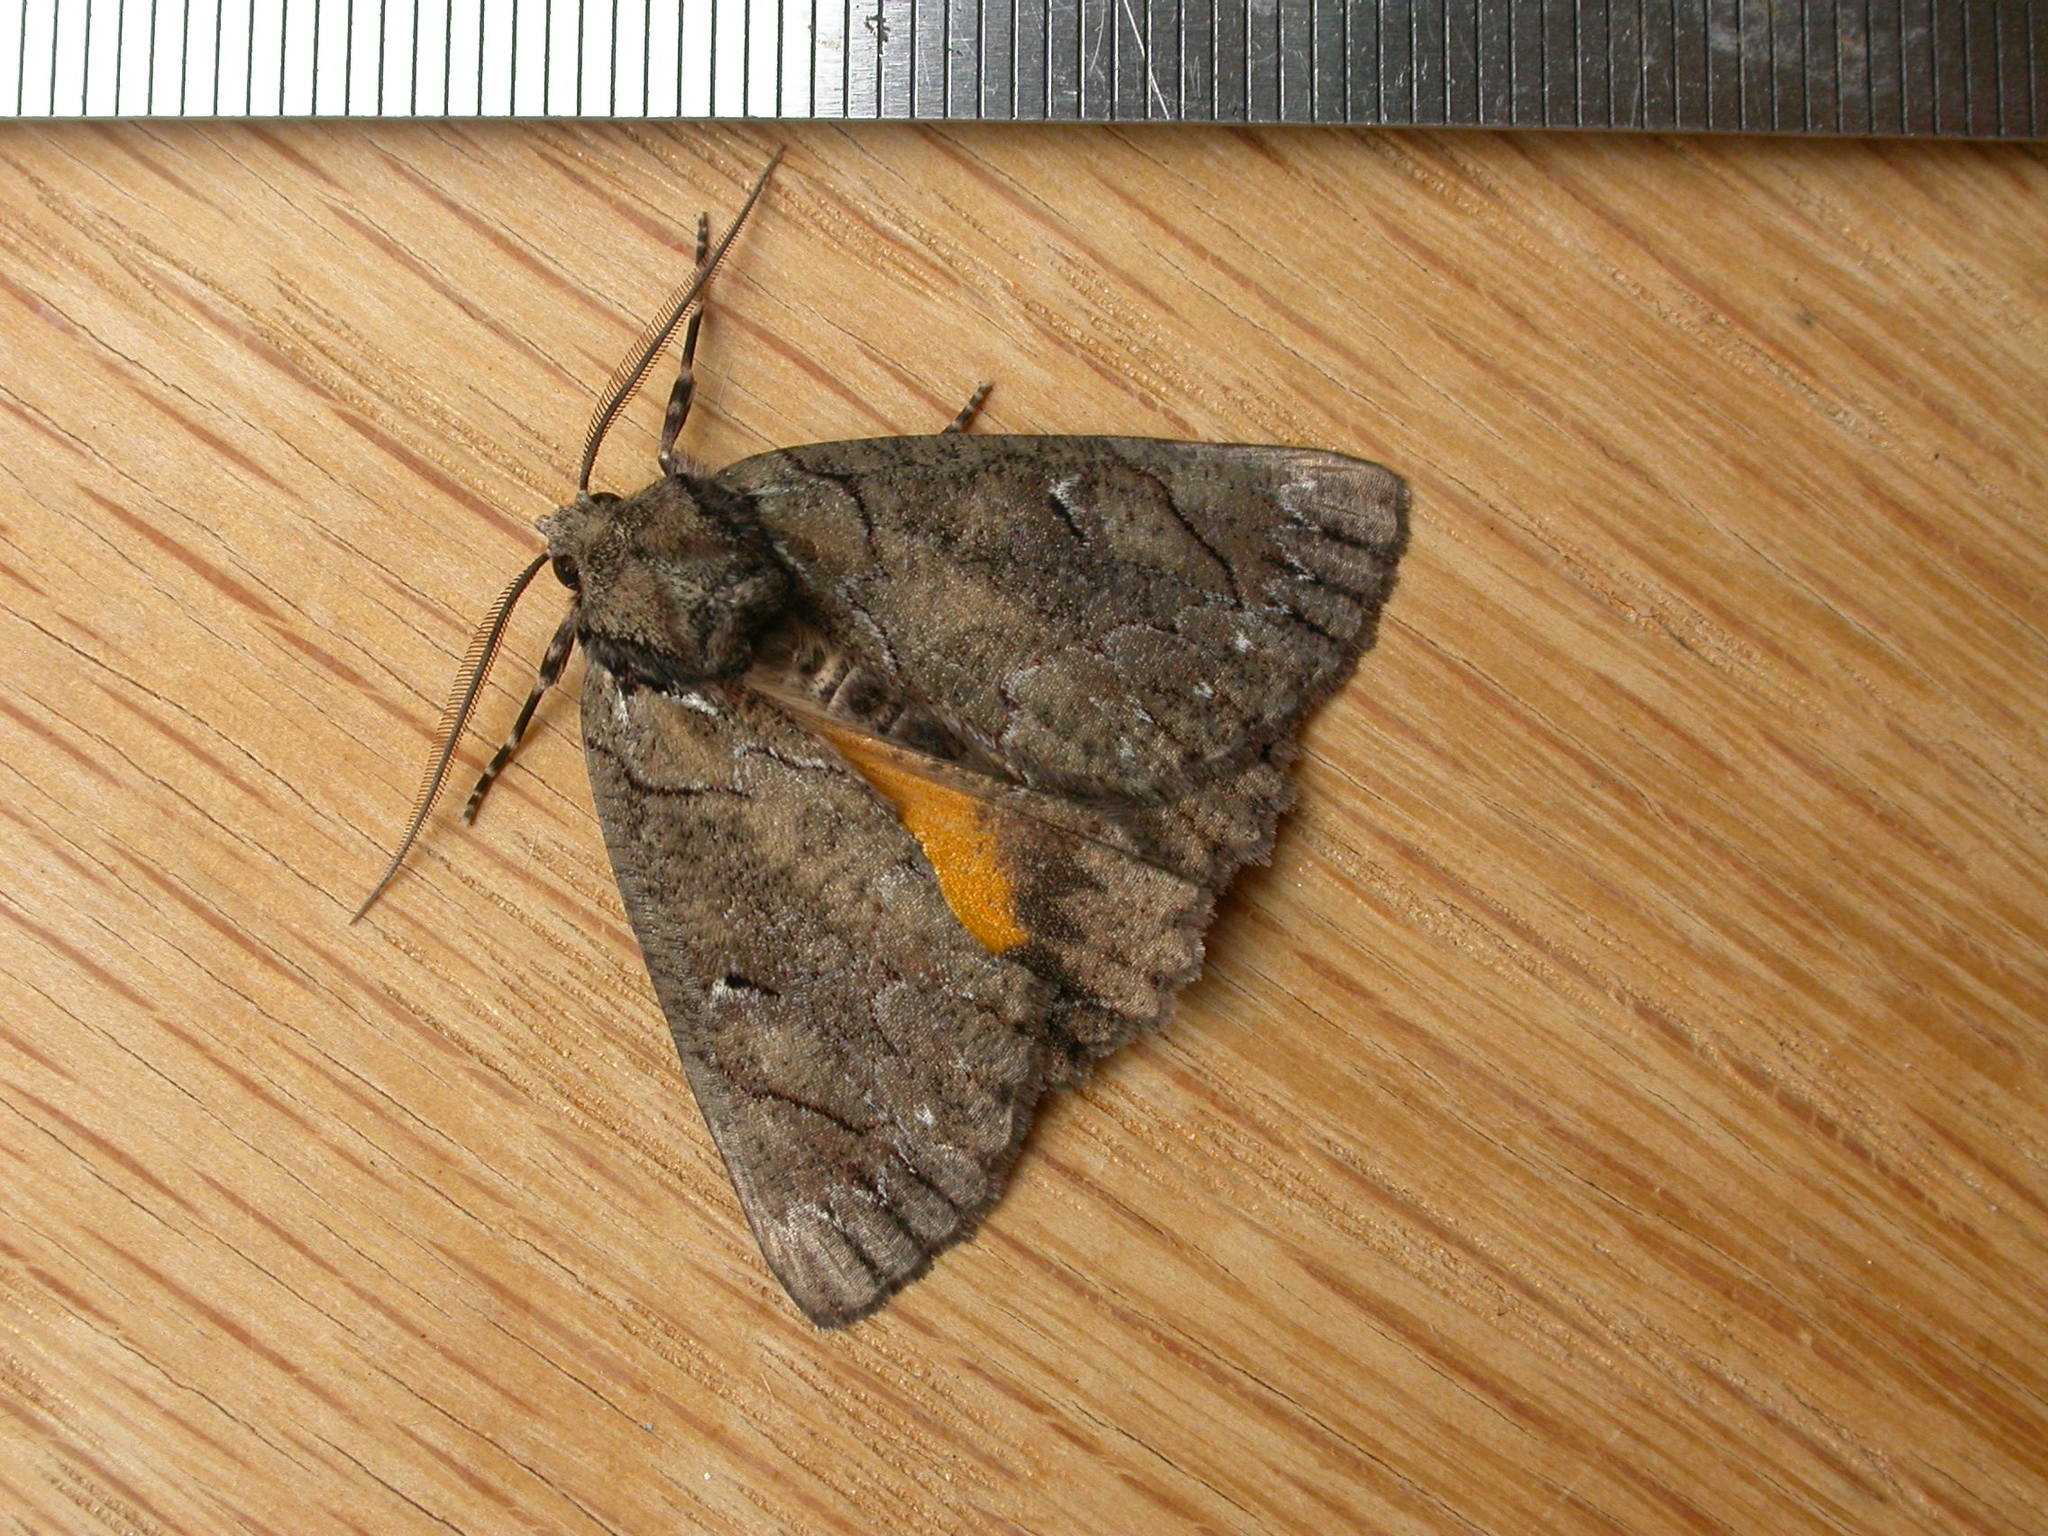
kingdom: Animalia
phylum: Arthropoda
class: Insecta
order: Lepidoptera
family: Geometridae
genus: Heliomystis
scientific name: Heliomystis electrica
